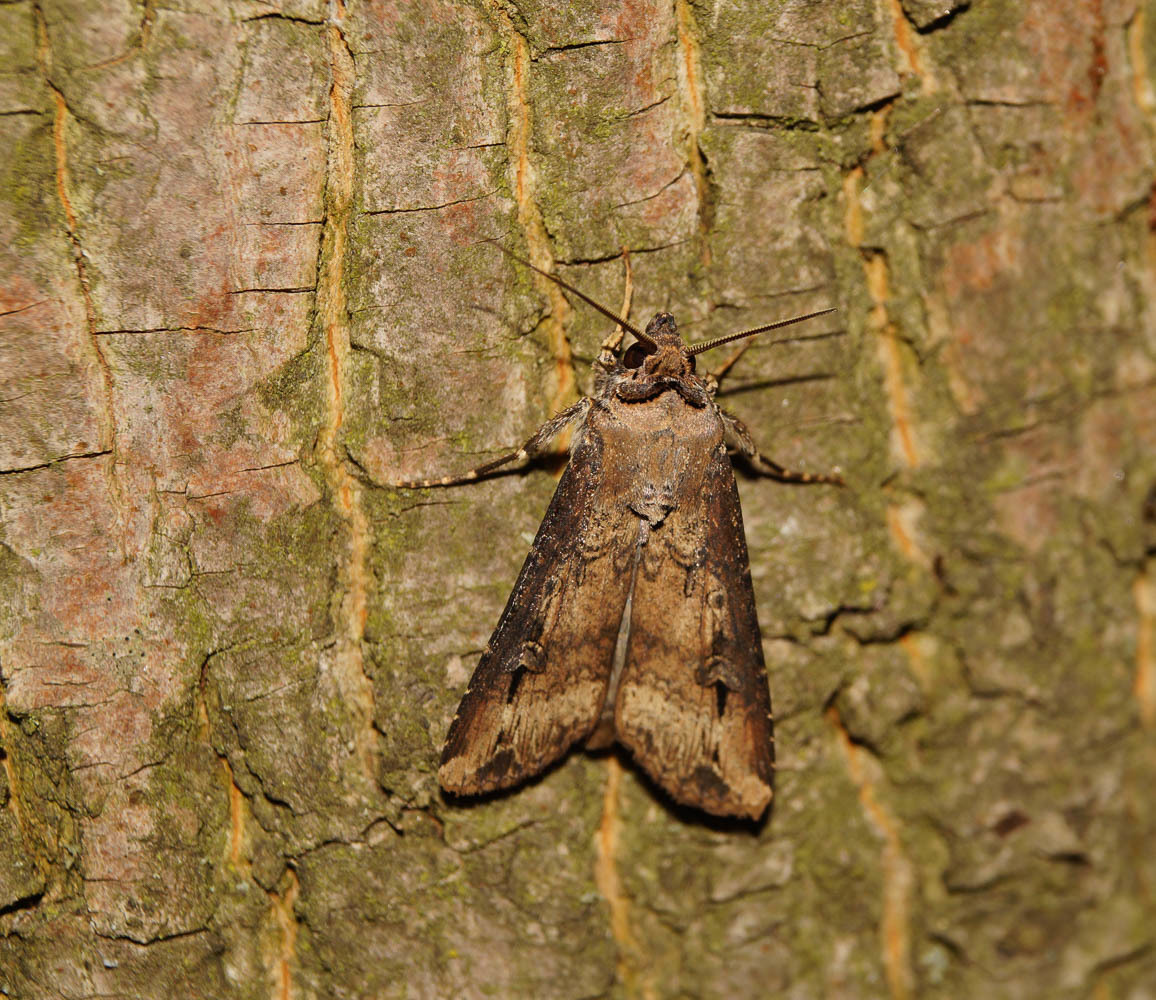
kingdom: Animalia
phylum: Arthropoda
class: Insecta
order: Lepidoptera
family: Noctuidae
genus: Agrotis
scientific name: Agrotis ipsilon
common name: Dark sword-grass
